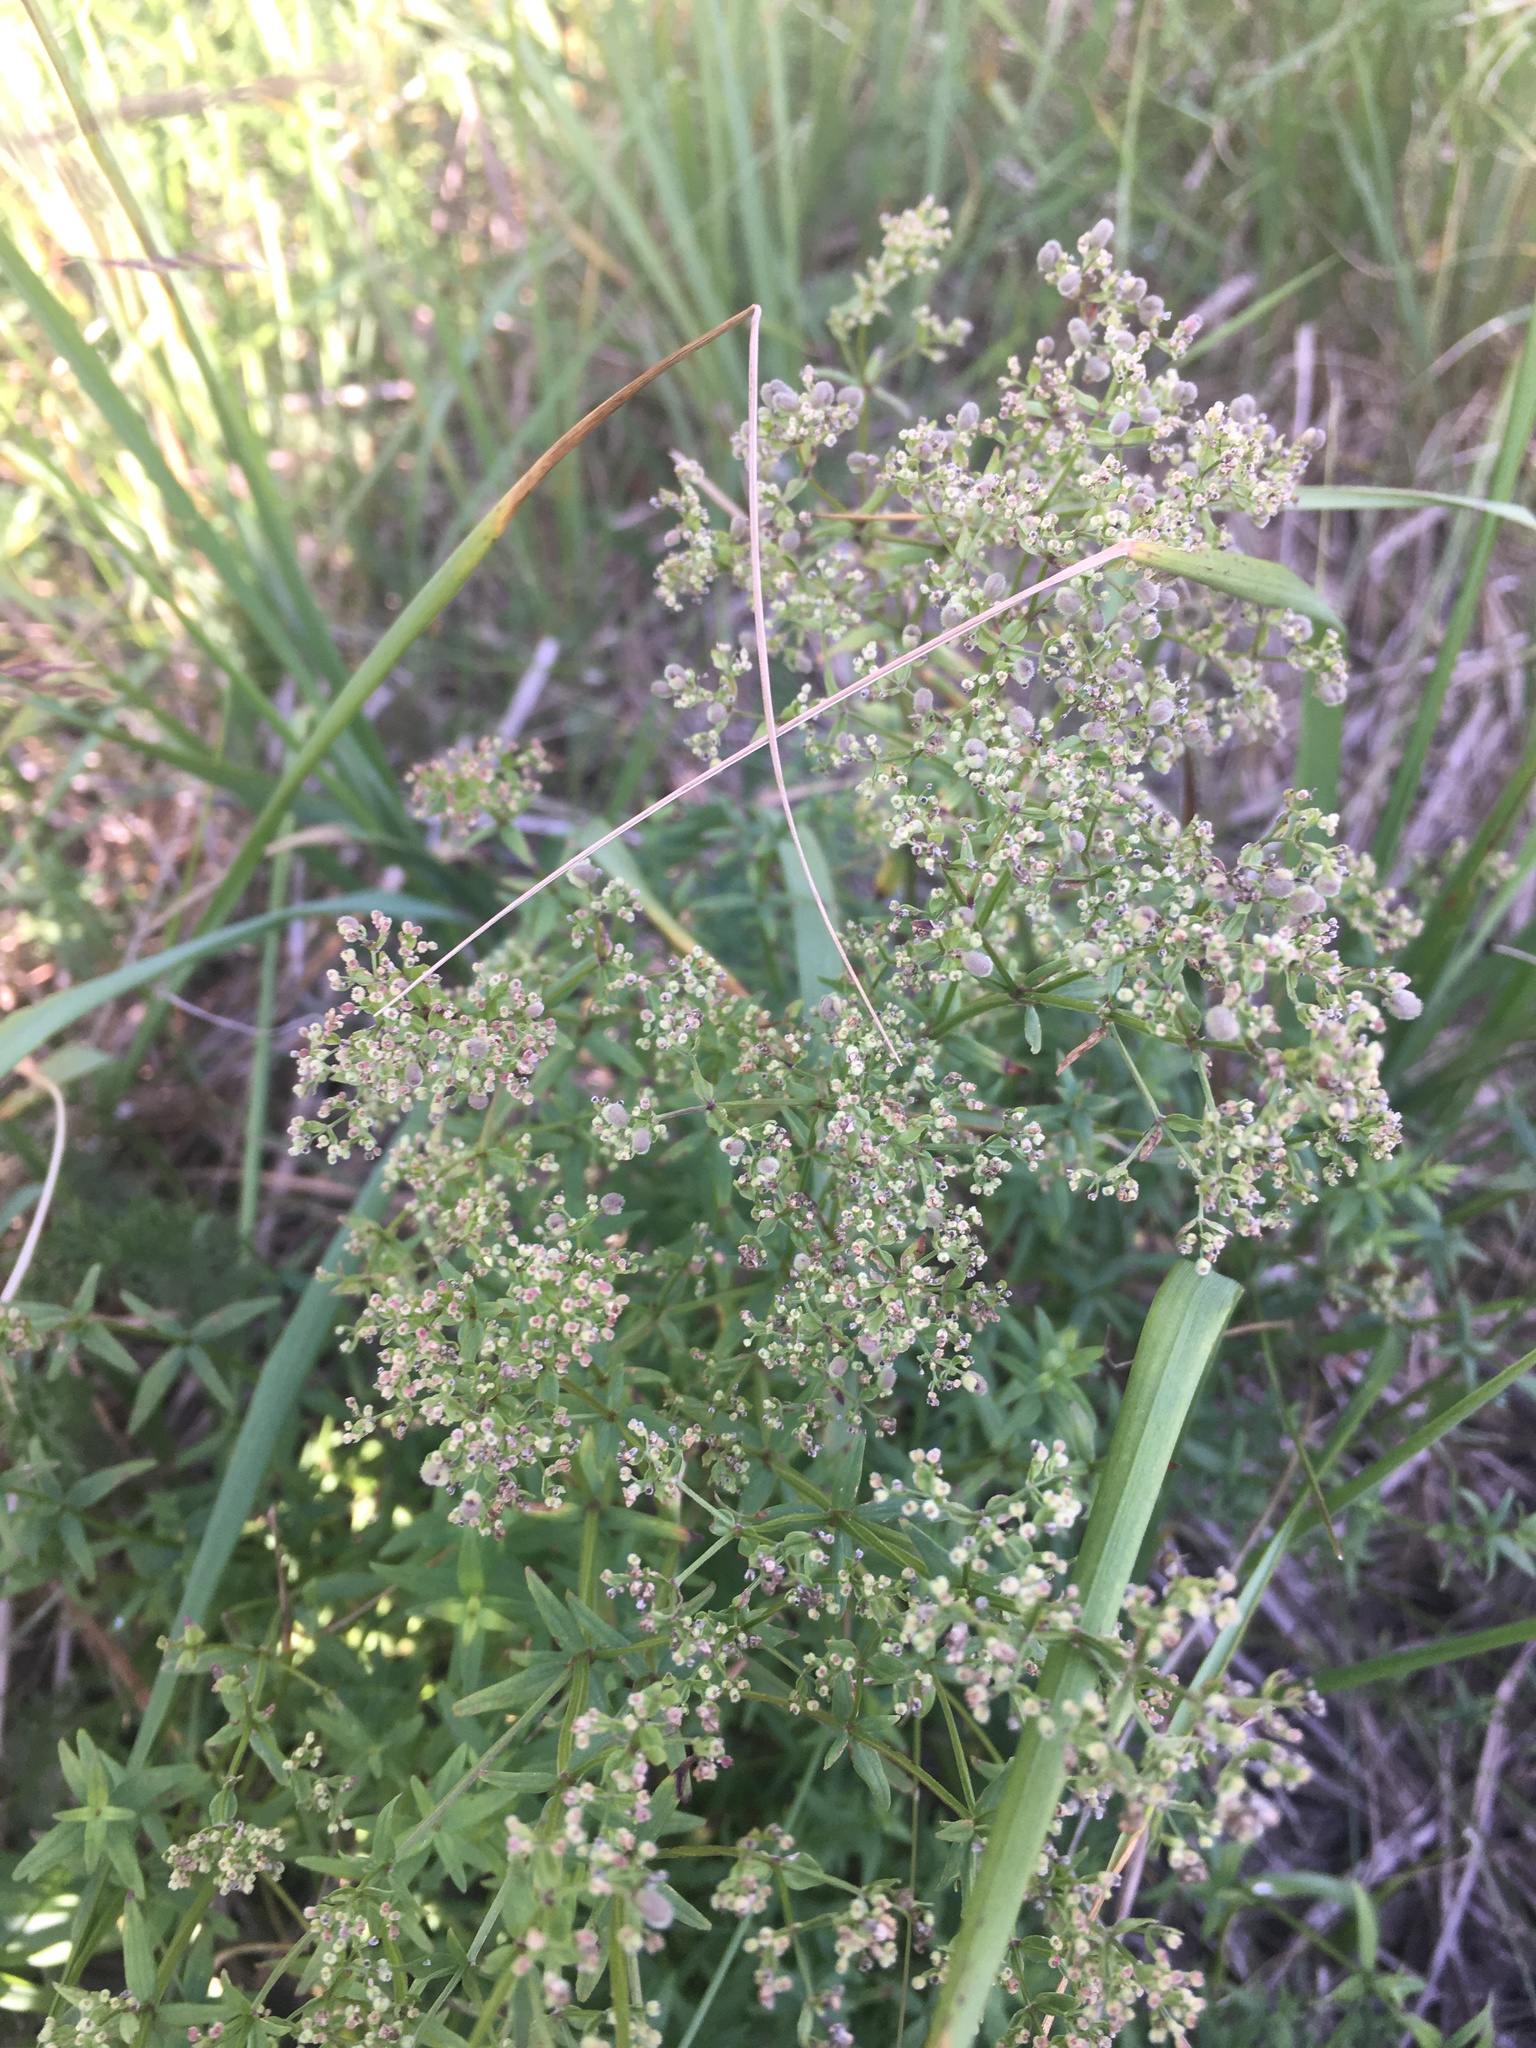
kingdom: Plantae
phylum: Tracheophyta
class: Magnoliopsida
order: Gentianales
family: Rubiaceae
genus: Galium
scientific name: Galium boreale
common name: Northern bedstraw
